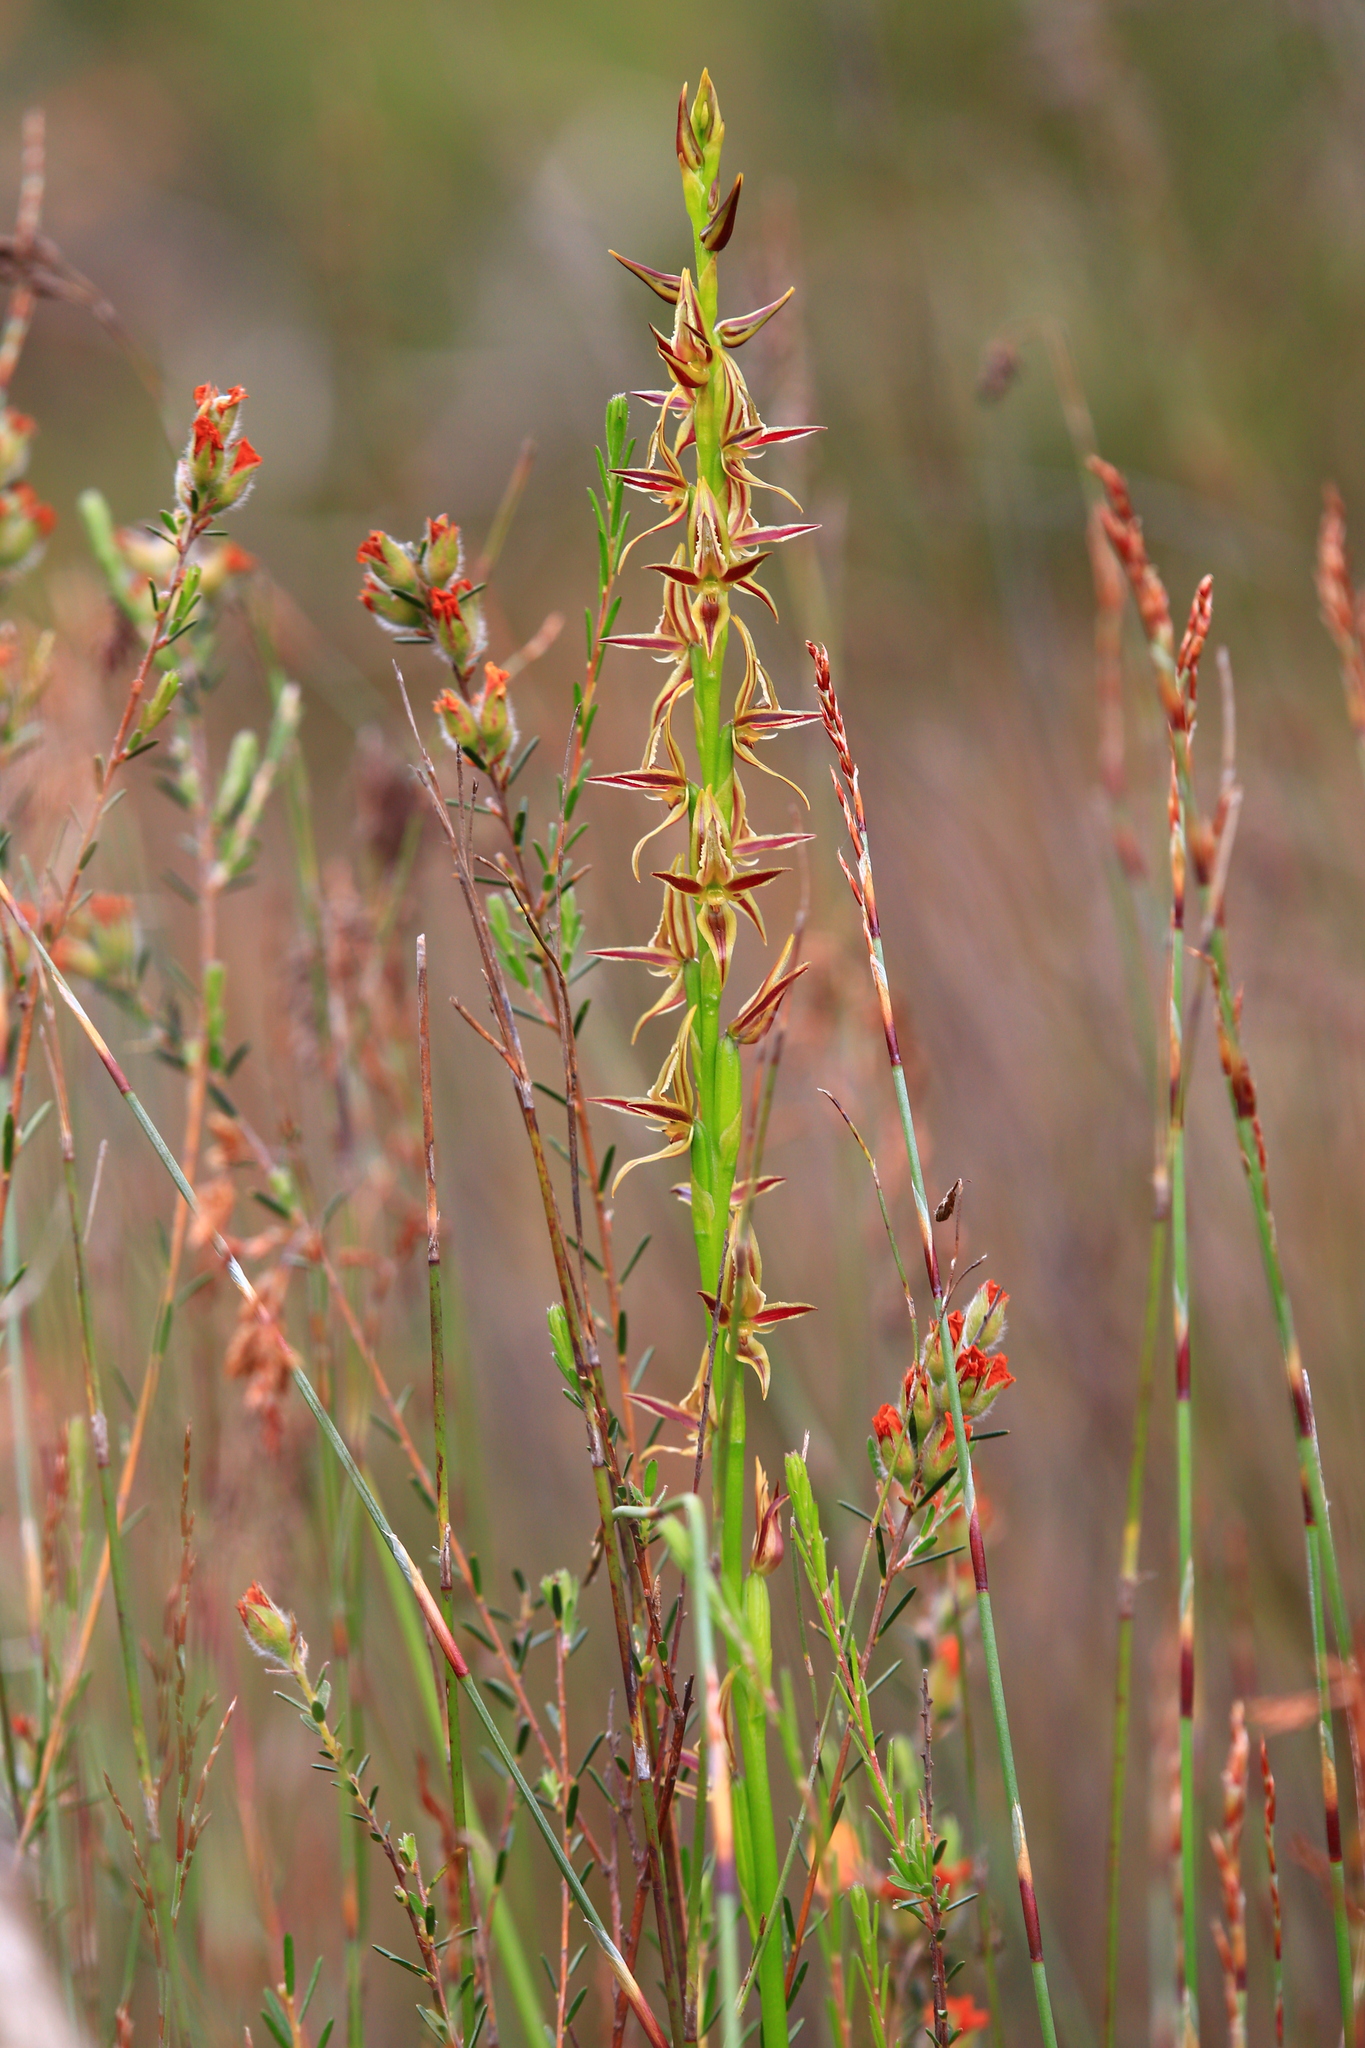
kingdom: Plantae
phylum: Tracheophyta
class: Liliopsida
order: Asparagales
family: Orchidaceae
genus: Prasophyllum
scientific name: Prasophyllum drummondii
